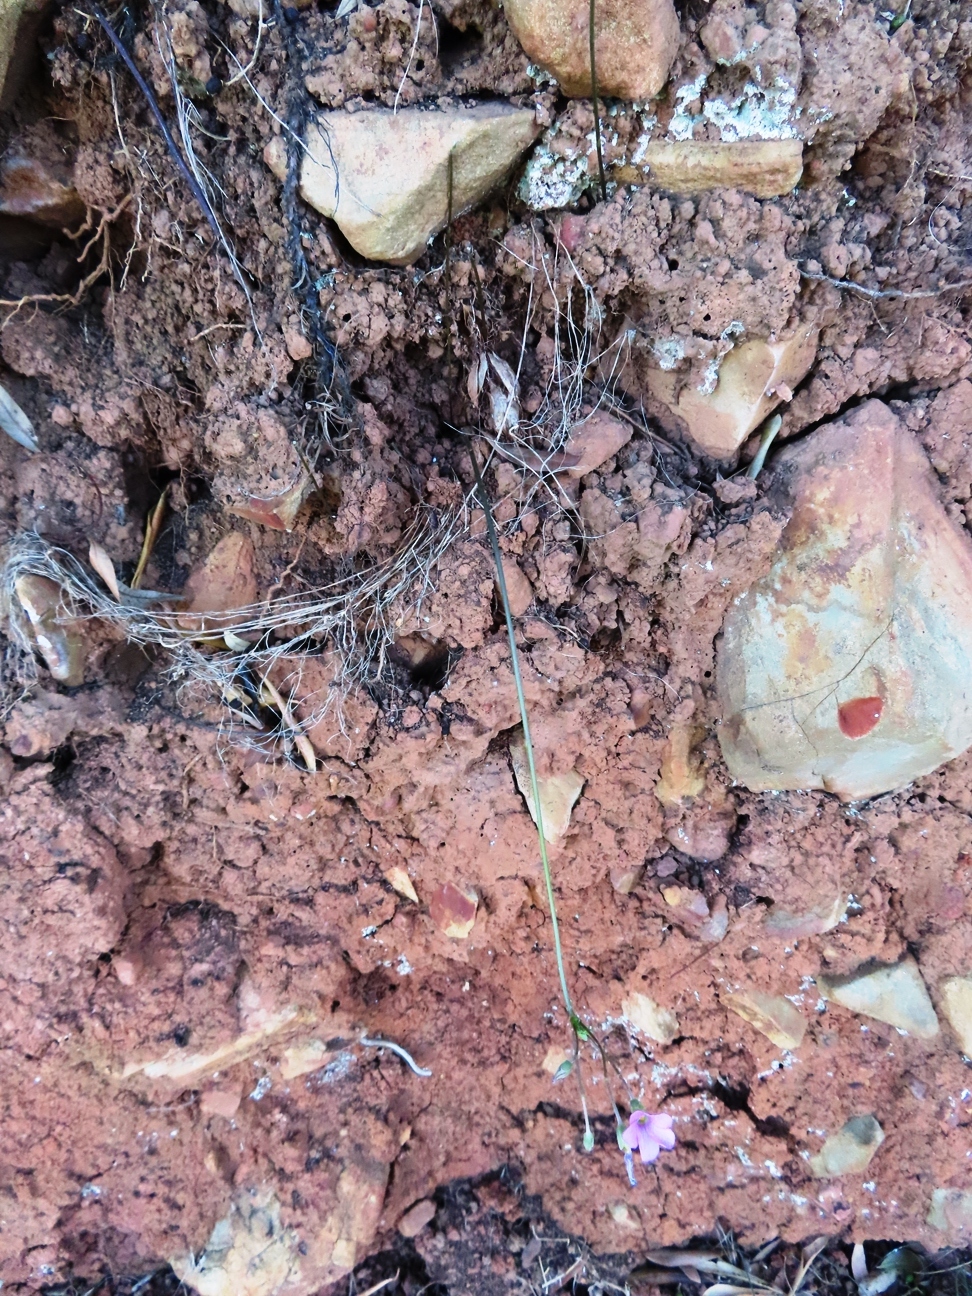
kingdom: Plantae
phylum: Tracheophyta
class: Magnoliopsida
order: Oxalidales
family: Oxalidaceae
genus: Oxalis
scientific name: Oxalis bifida
